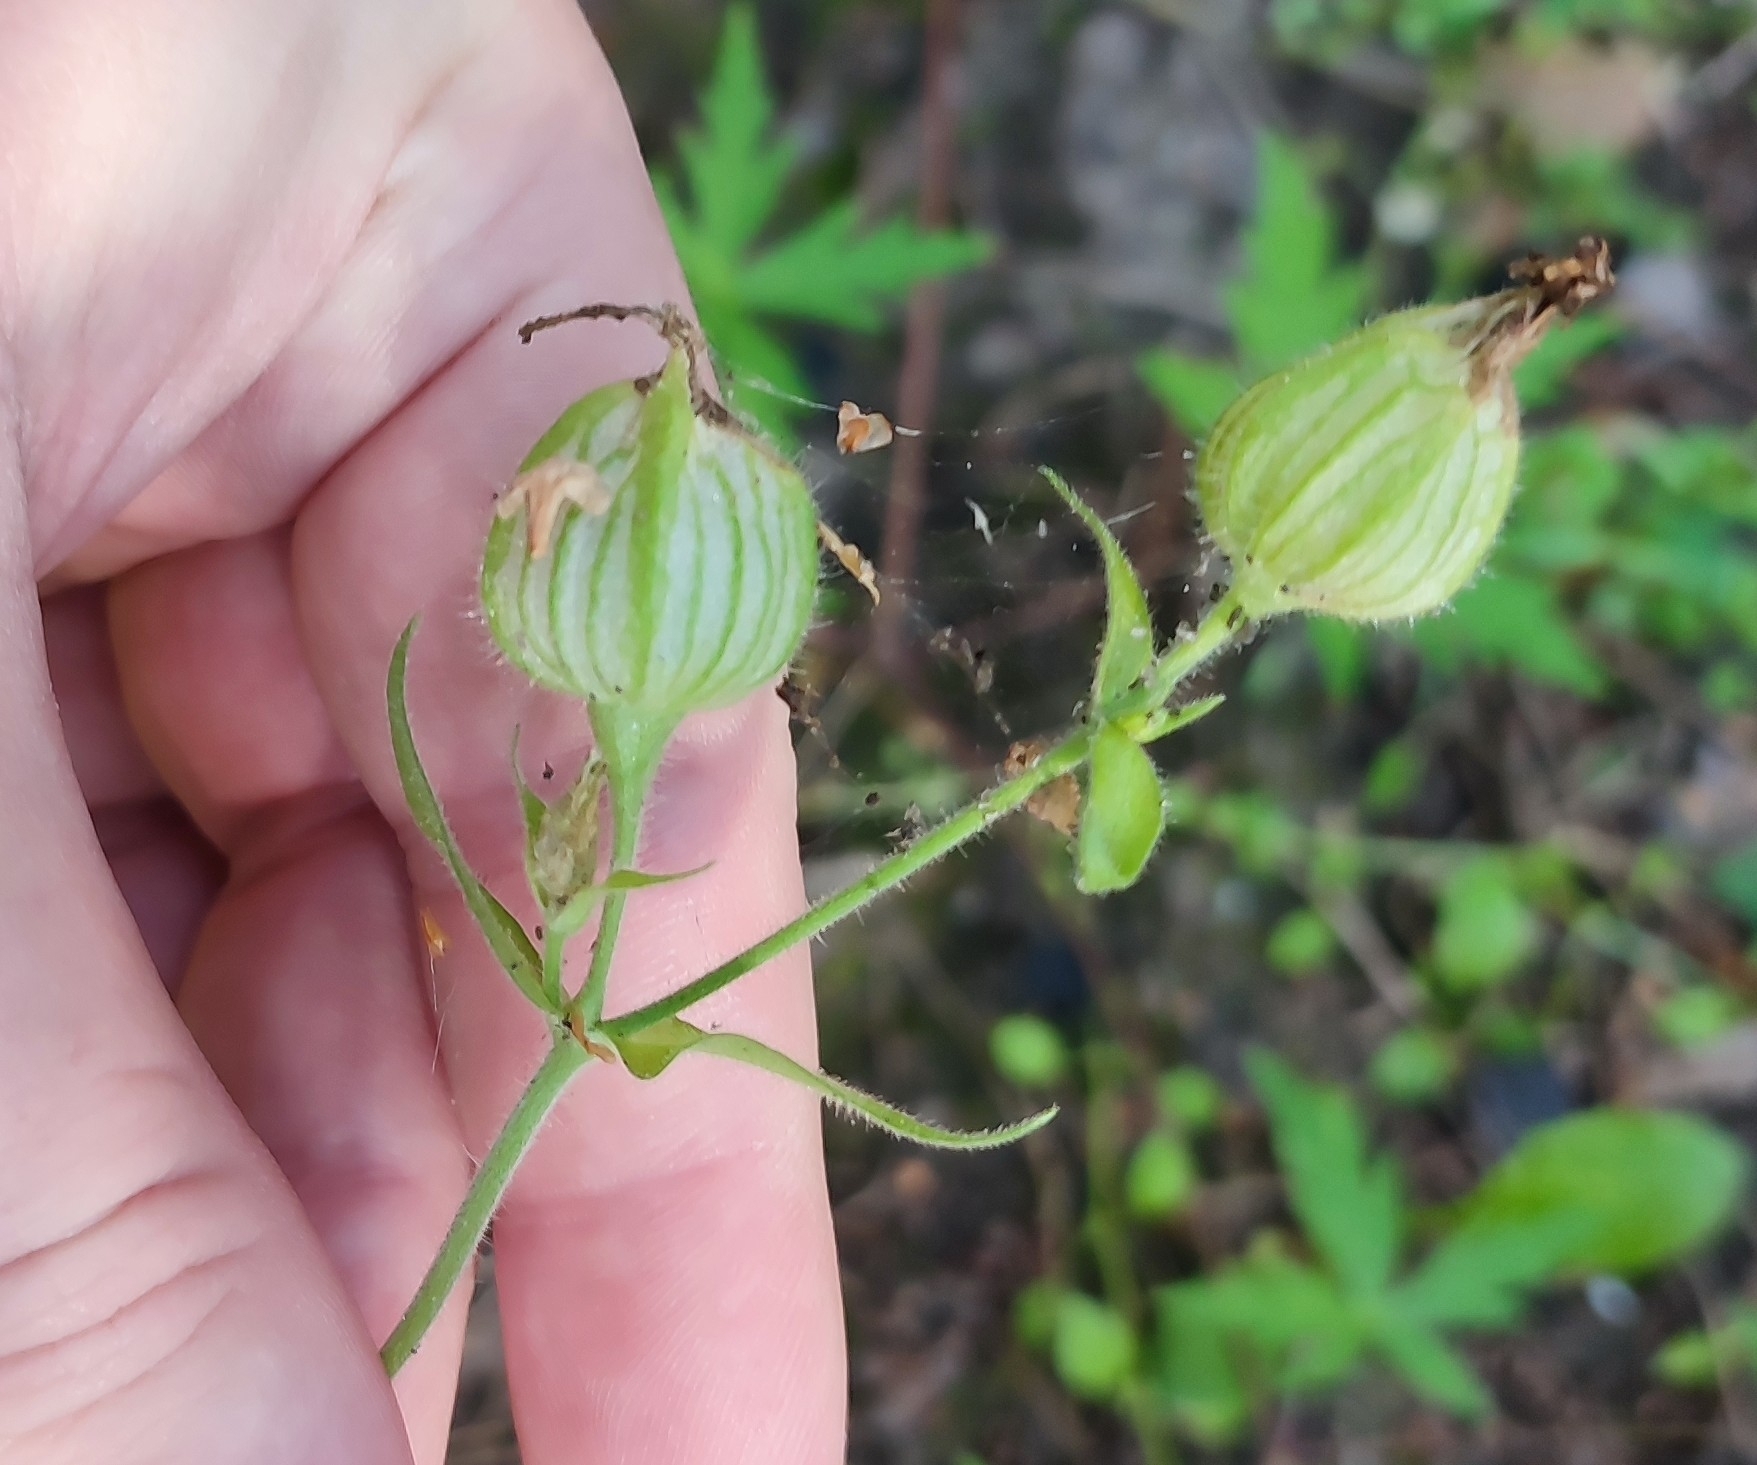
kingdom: Plantae
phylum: Tracheophyta
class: Magnoliopsida
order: Caryophyllales
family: Caryophyllaceae
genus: Silene
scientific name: Silene latifolia
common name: White campion
